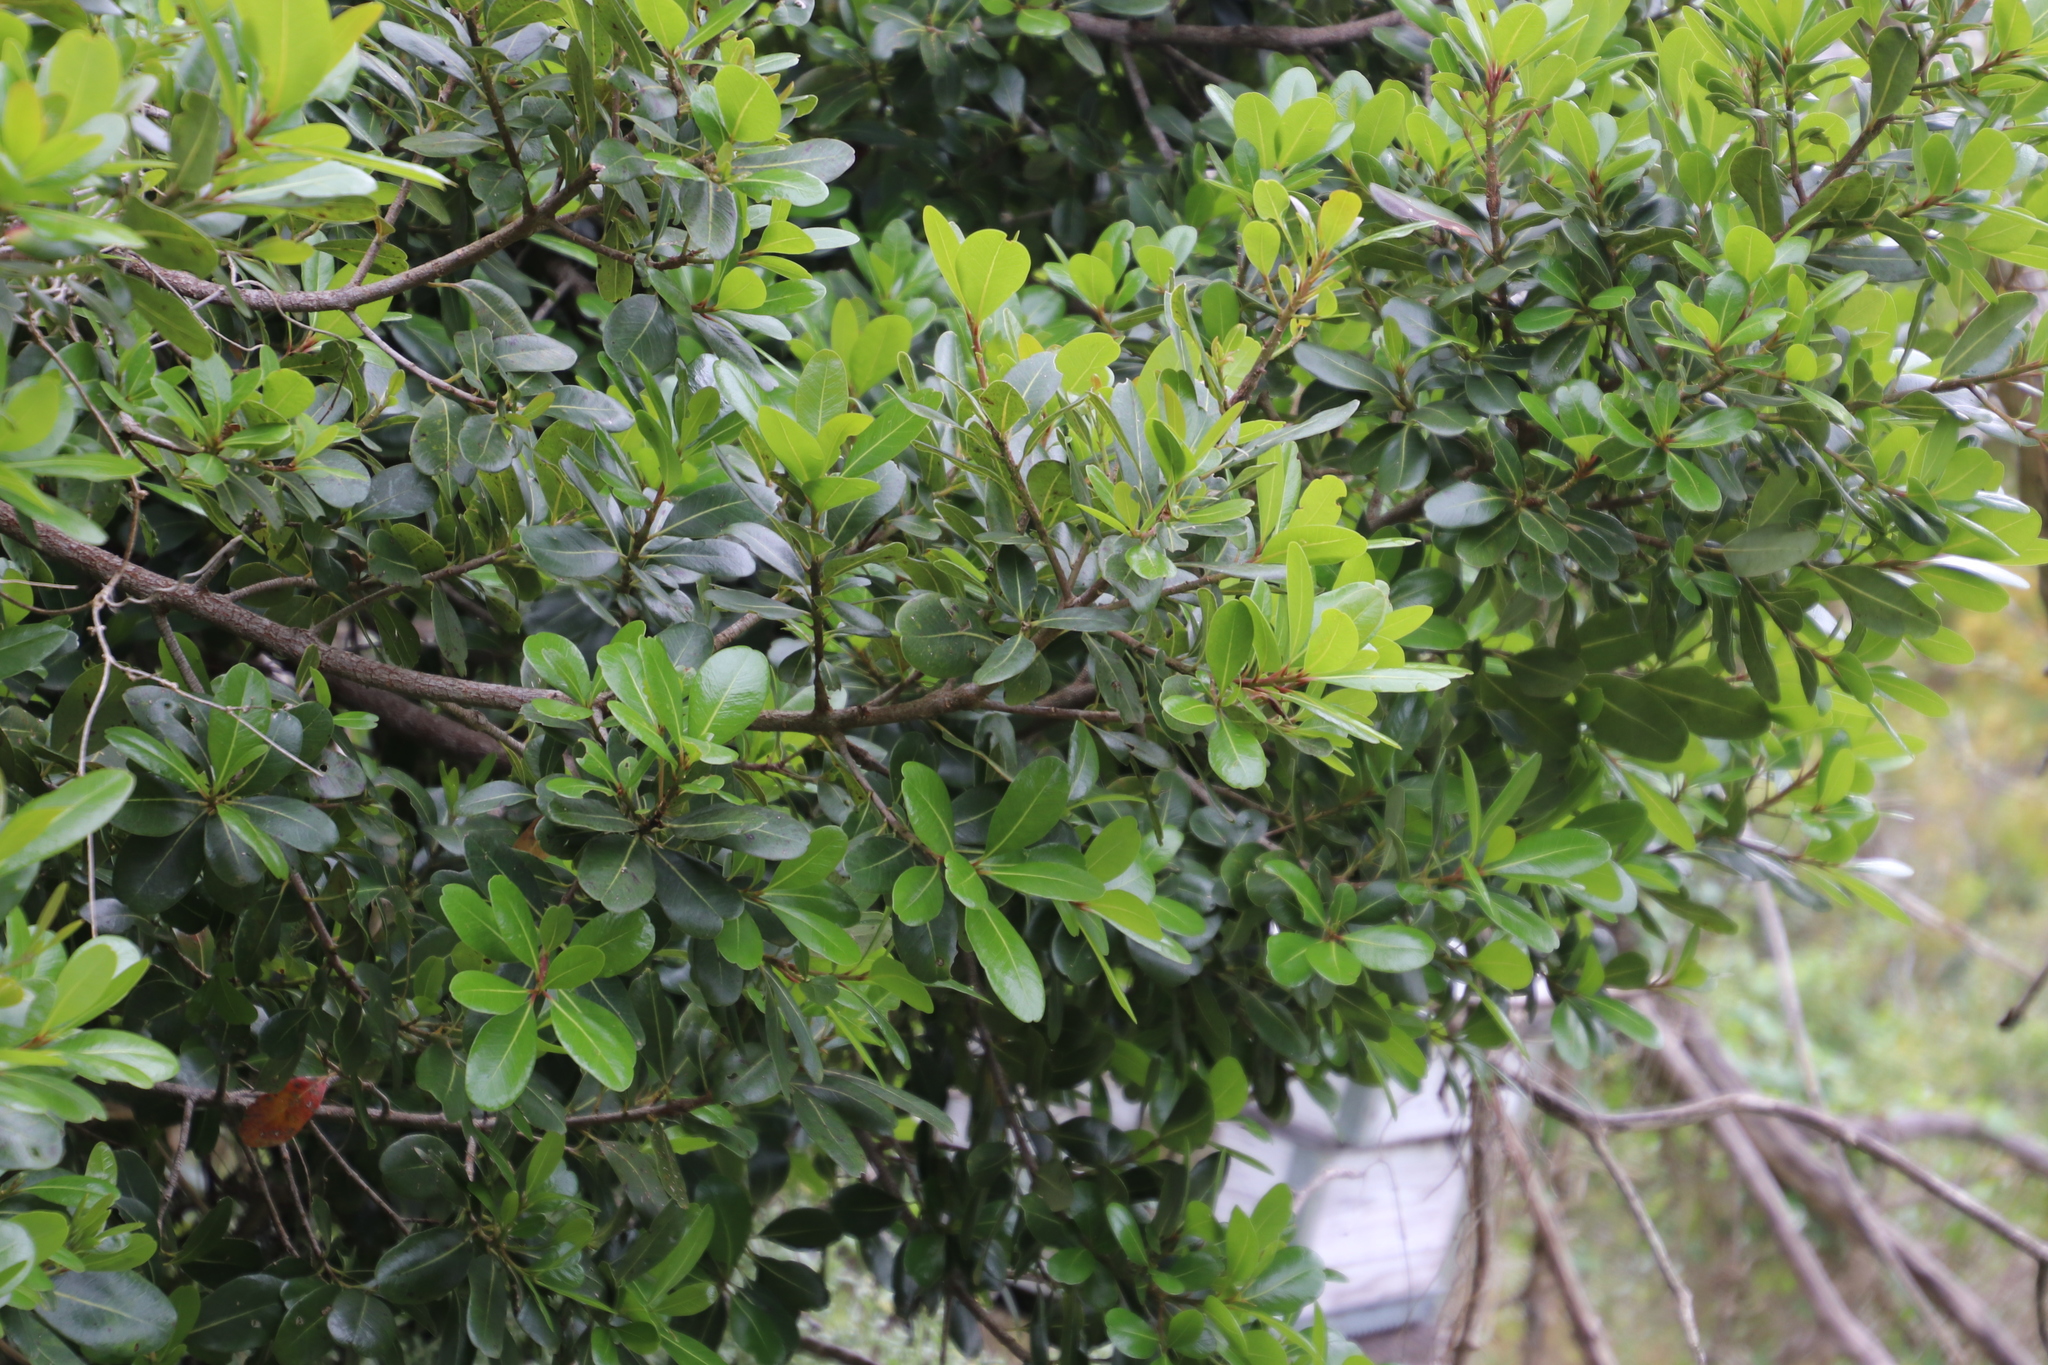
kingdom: Plantae
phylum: Tracheophyta
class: Magnoliopsida
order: Ericales
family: Sapotaceae
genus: Sideroxylon
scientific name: Sideroxylon inerme
